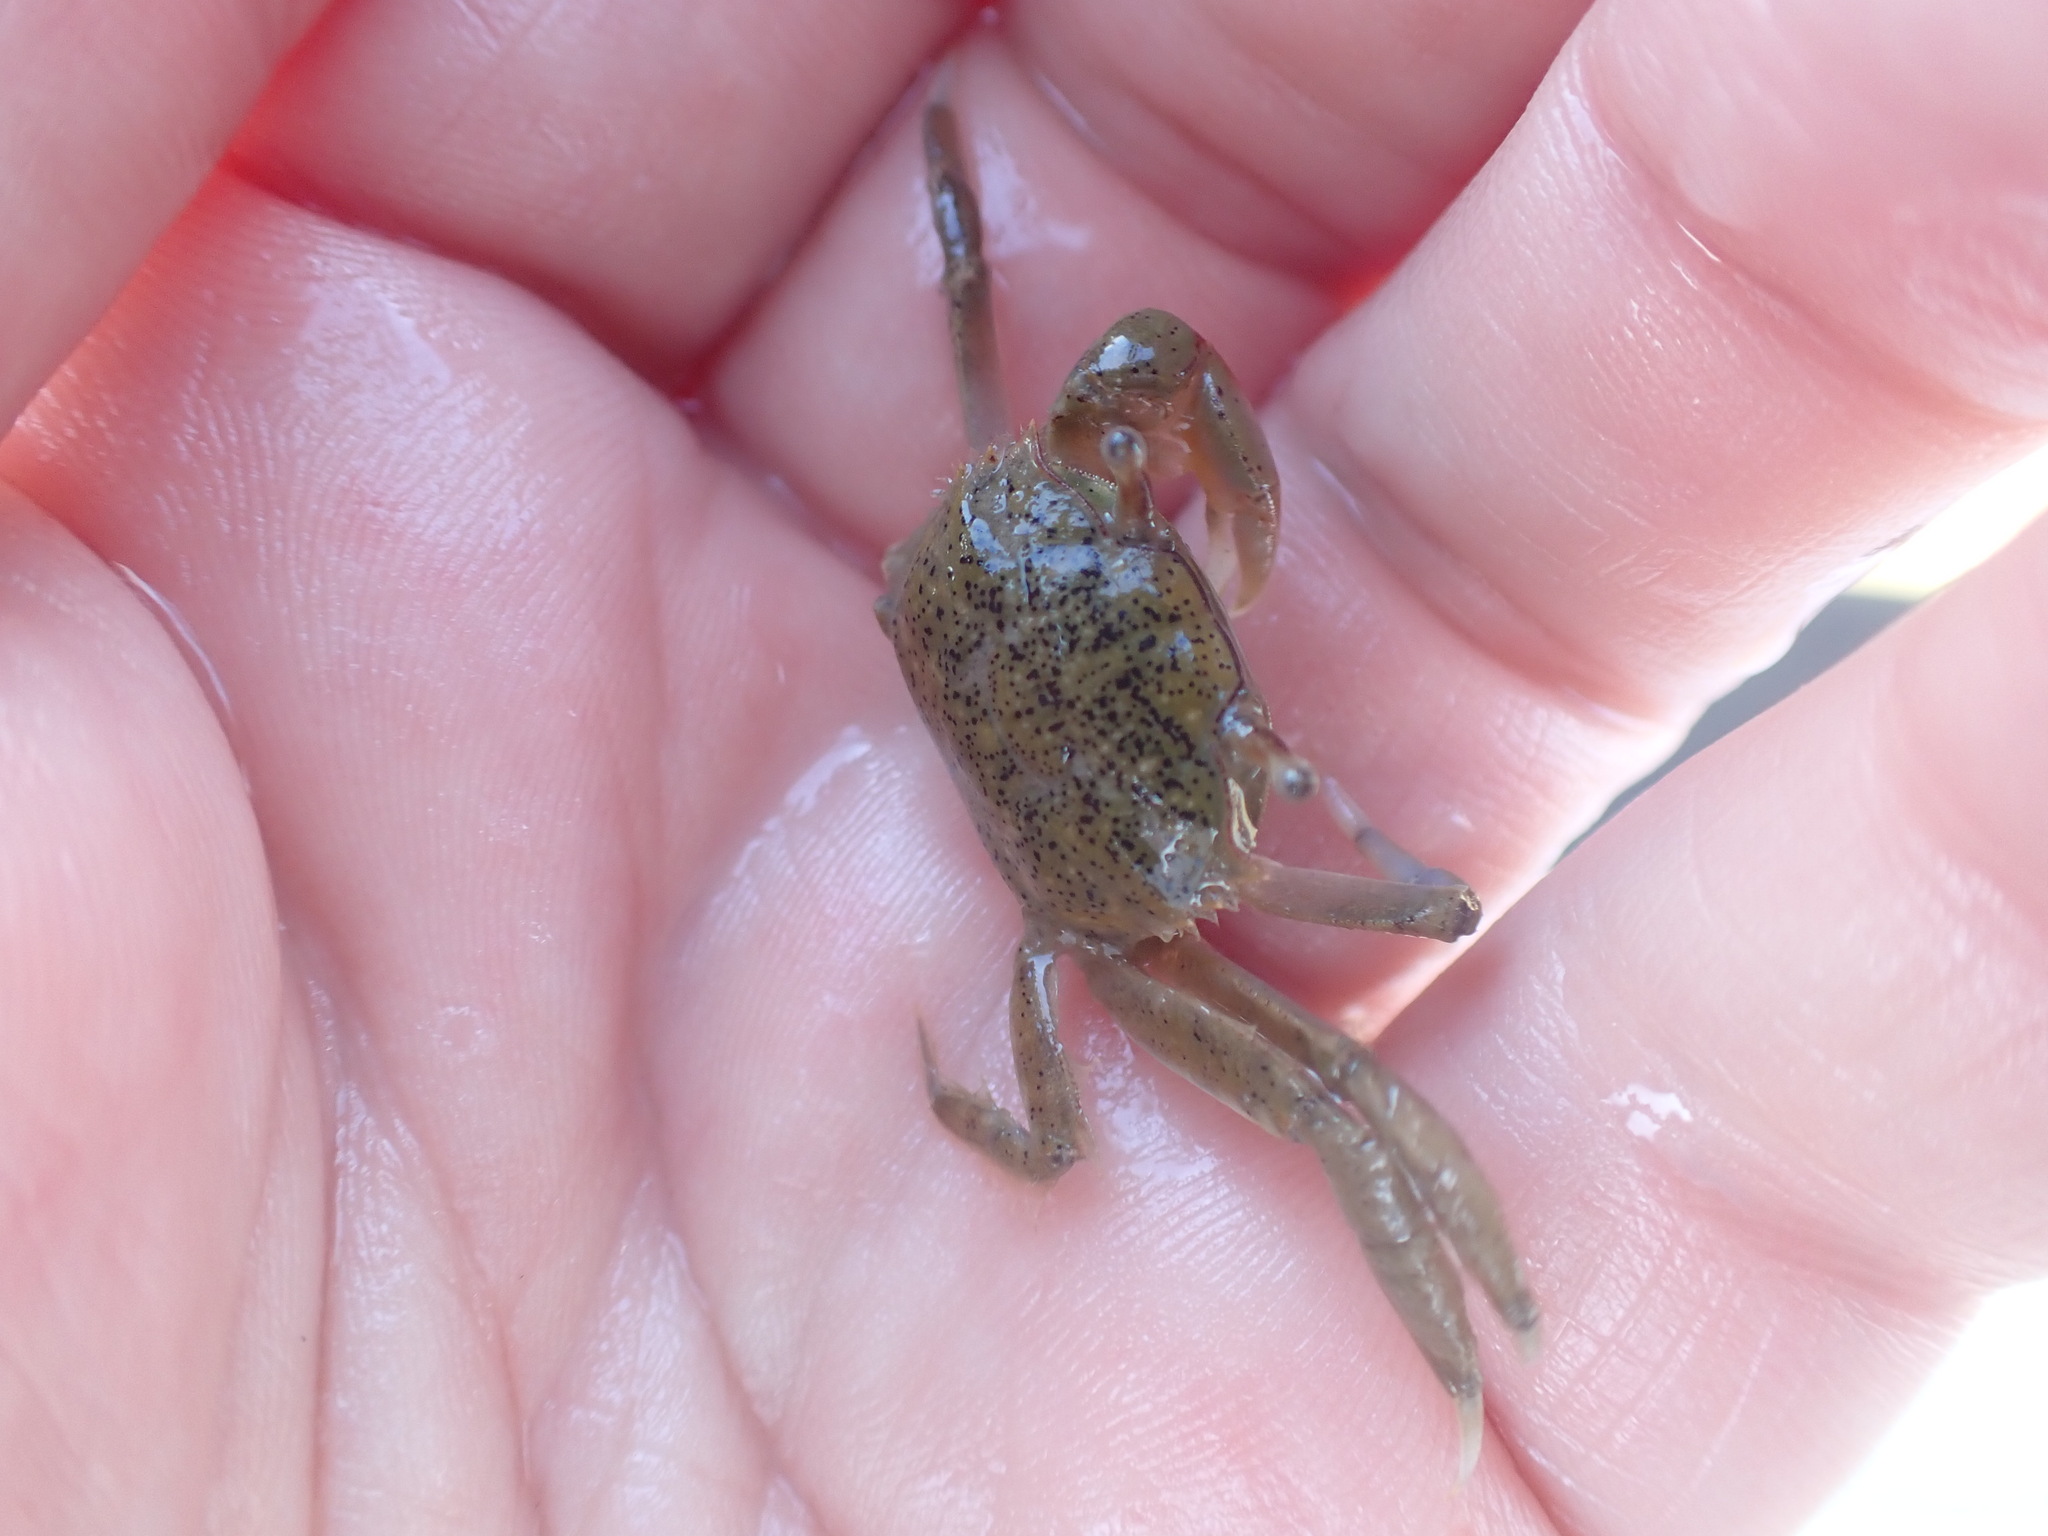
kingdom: Animalia
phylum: Arthropoda
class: Malacostraca
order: Decapoda
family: Macrophthalmidae
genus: Hemiplax
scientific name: Hemiplax hirtipes
